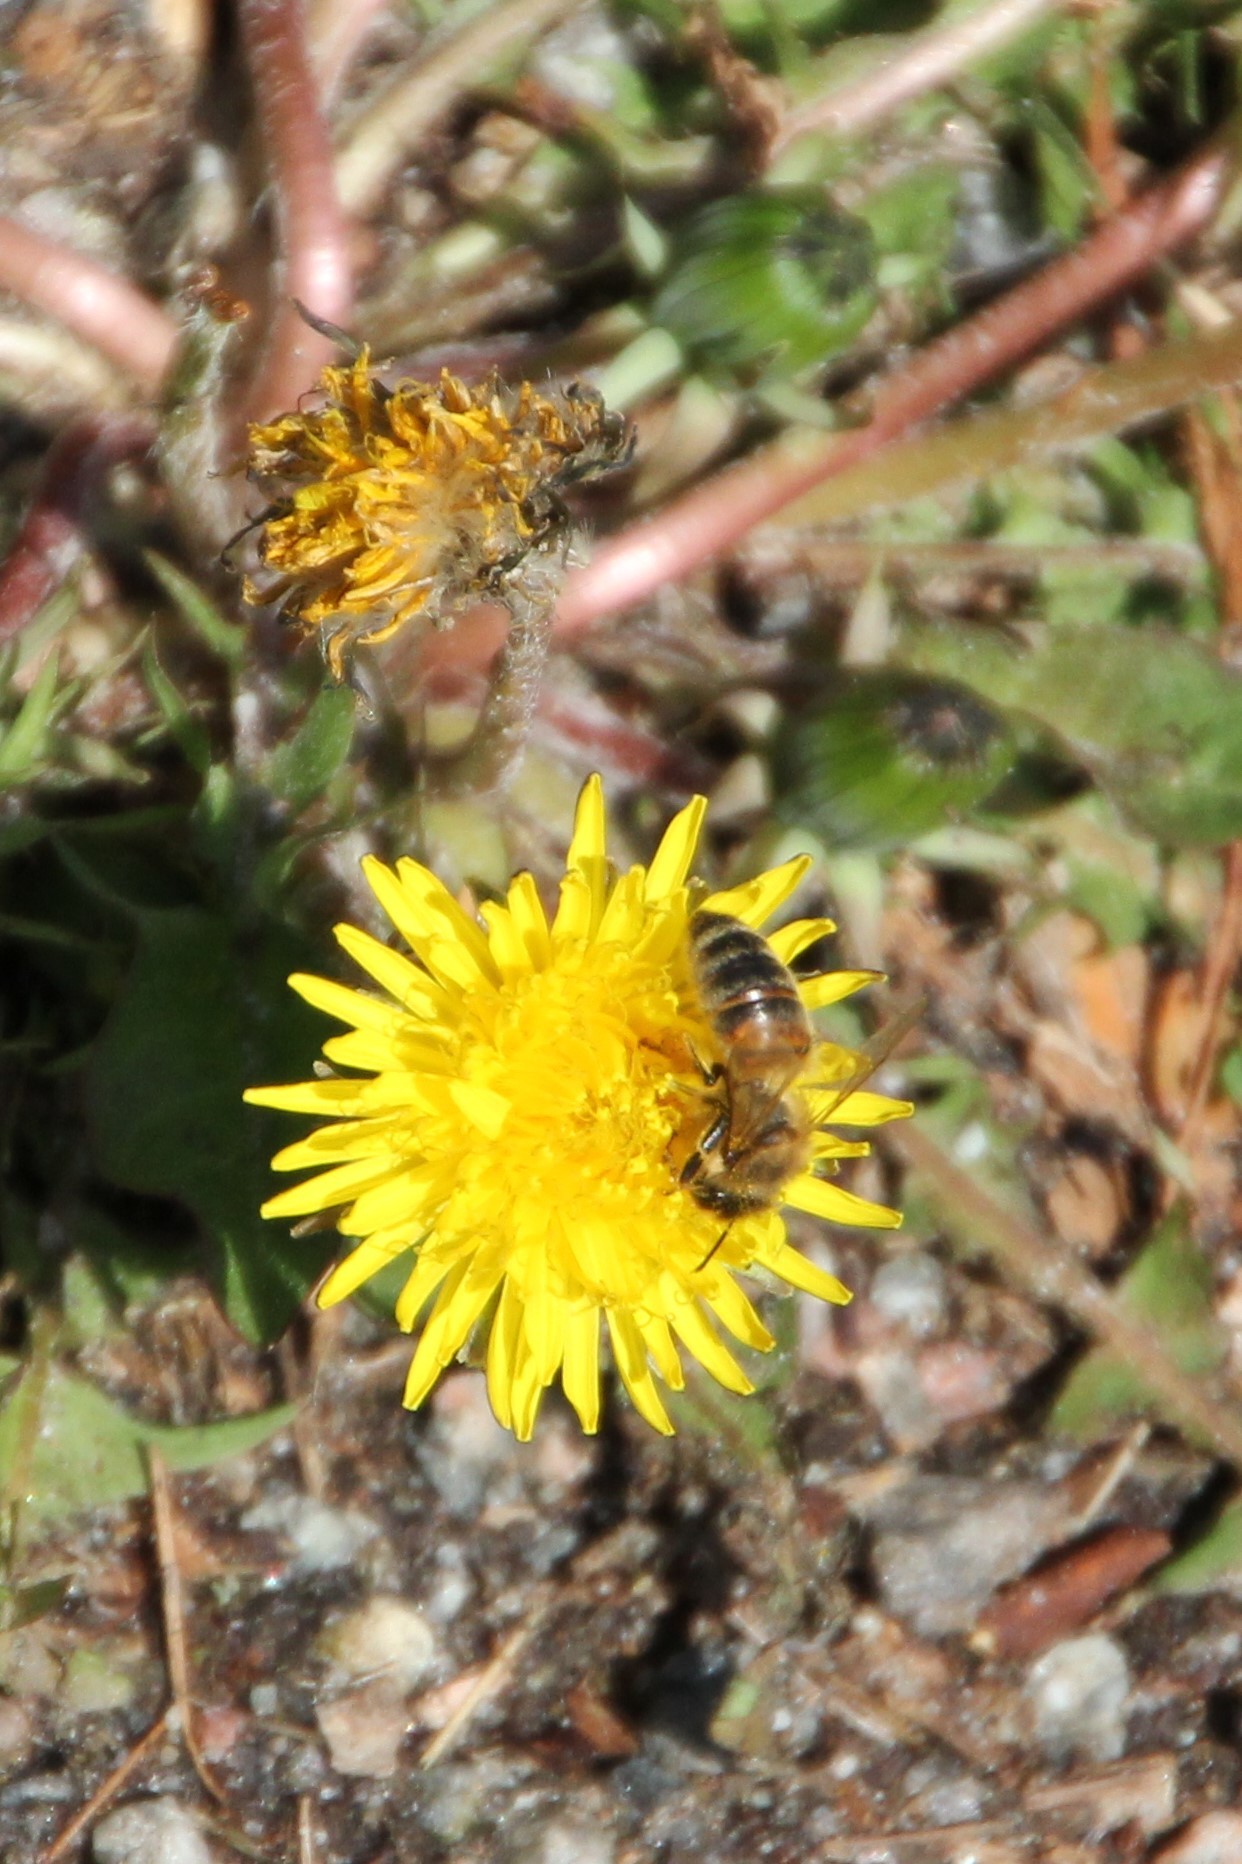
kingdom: Animalia
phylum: Arthropoda
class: Insecta
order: Hymenoptera
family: Apidae
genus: Apis
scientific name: Apis mellifera
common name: Honey bee
